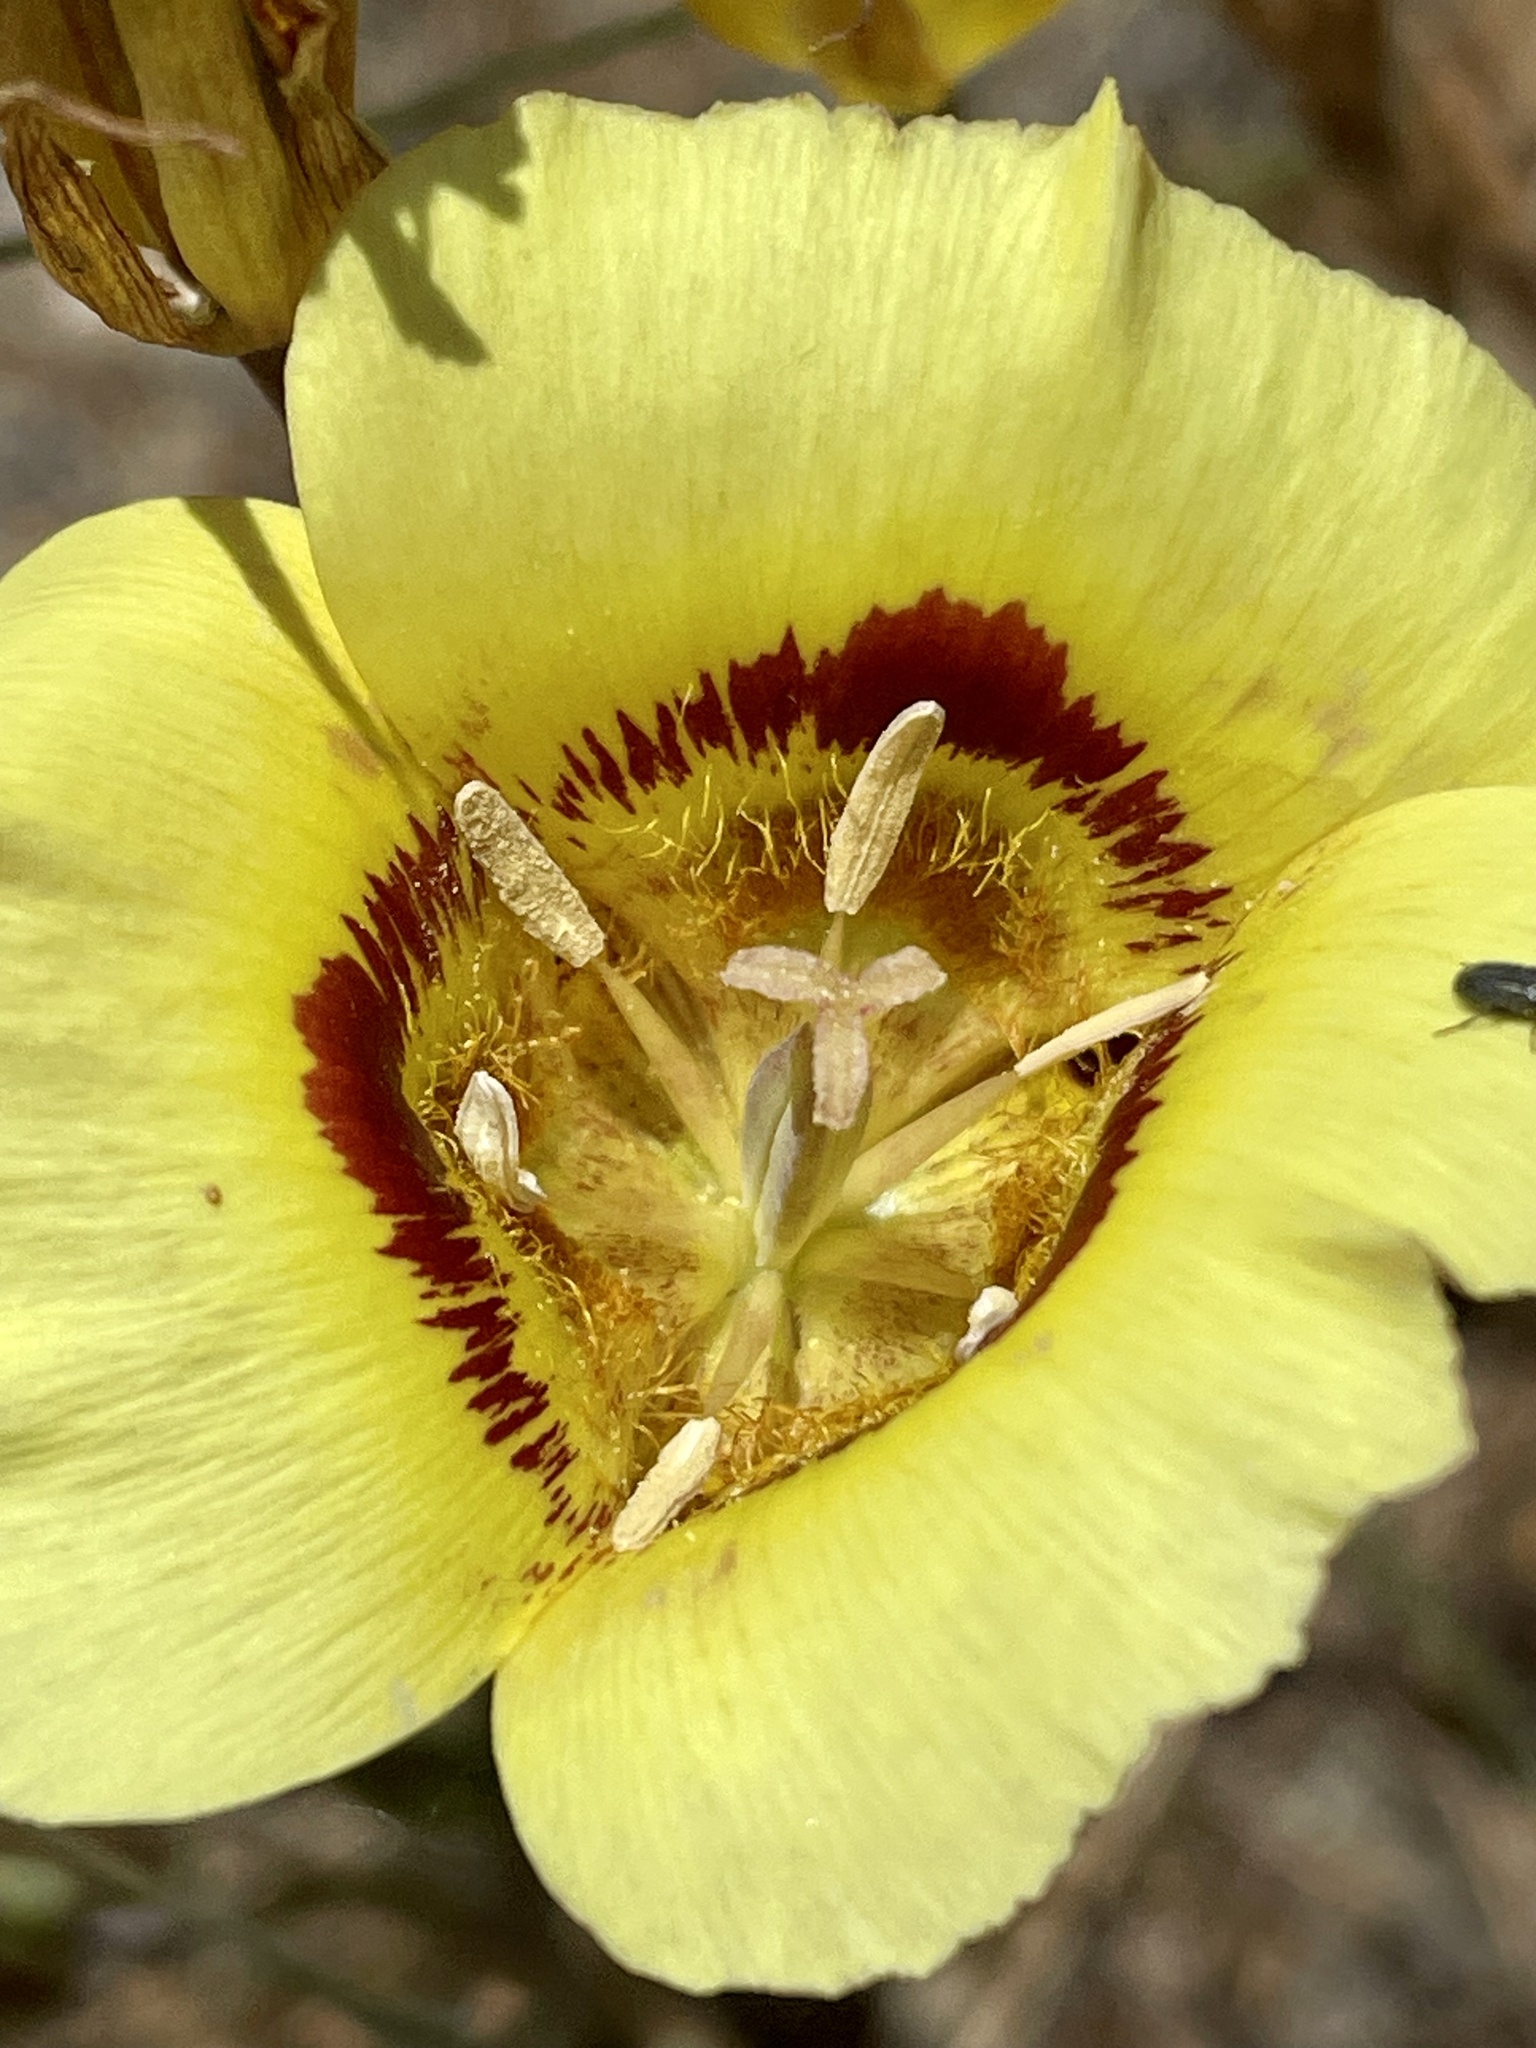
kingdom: Plantae
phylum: Tracheophyta
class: Liliopsida
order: Liliales
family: Liliaceae
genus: Calochortus
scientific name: Calochortus luteus
